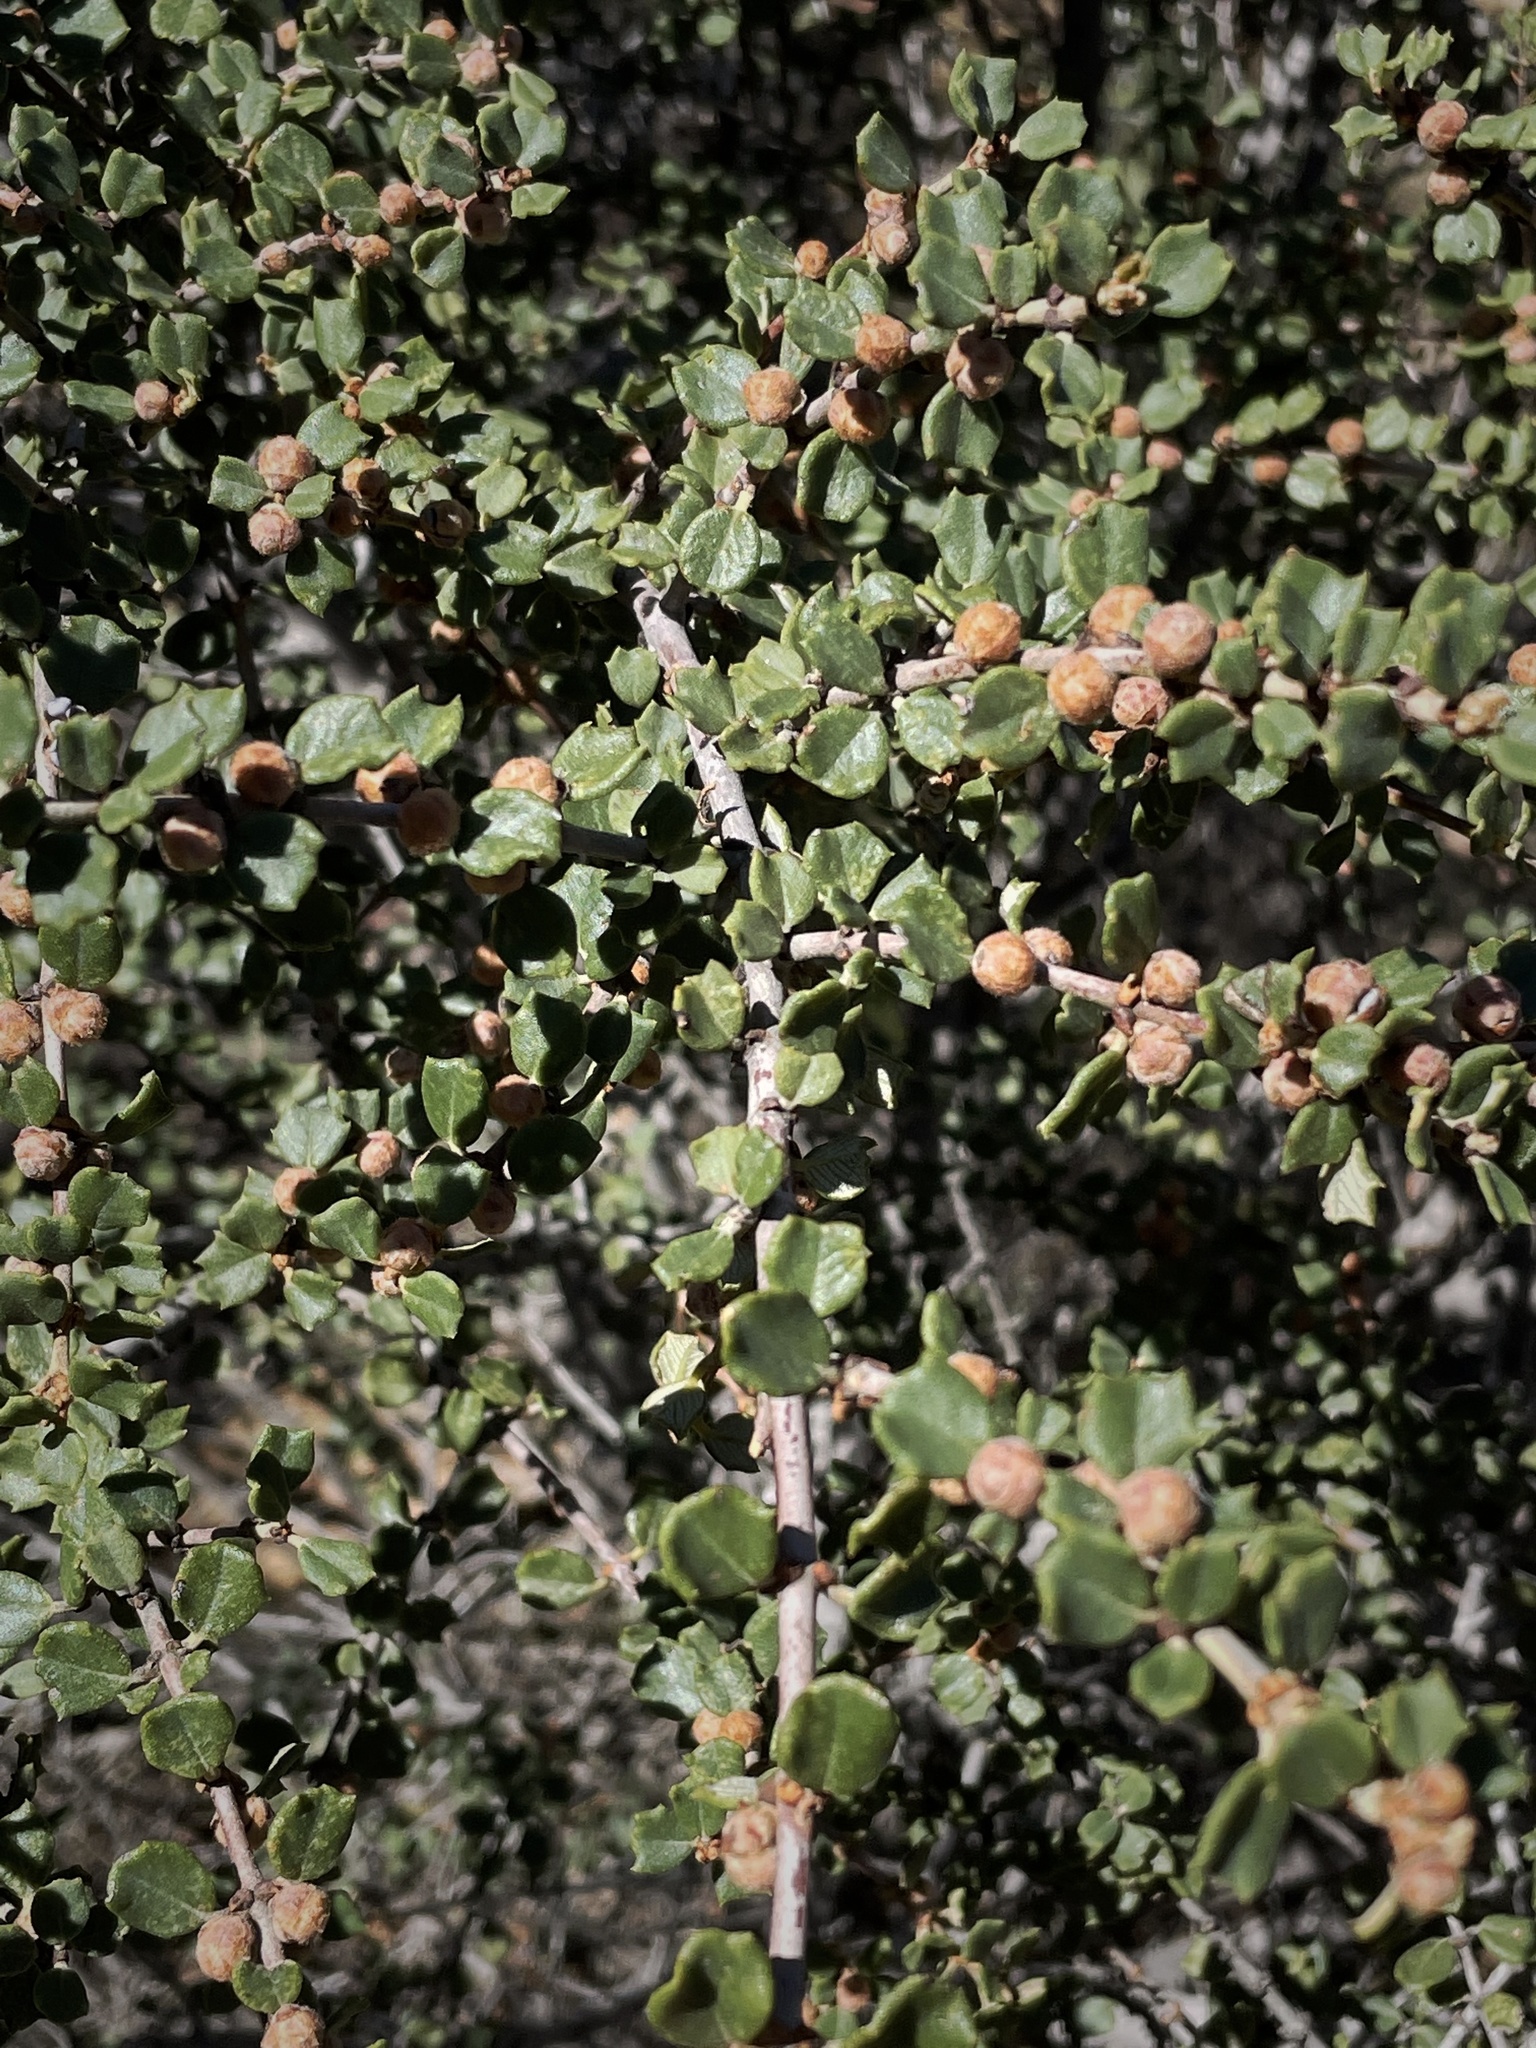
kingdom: Plantae
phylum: Tracheophyta
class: Magnoliopsida
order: Rosales
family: Rhamnaceae
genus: Ceanothus
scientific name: Ceanothus otayensis
